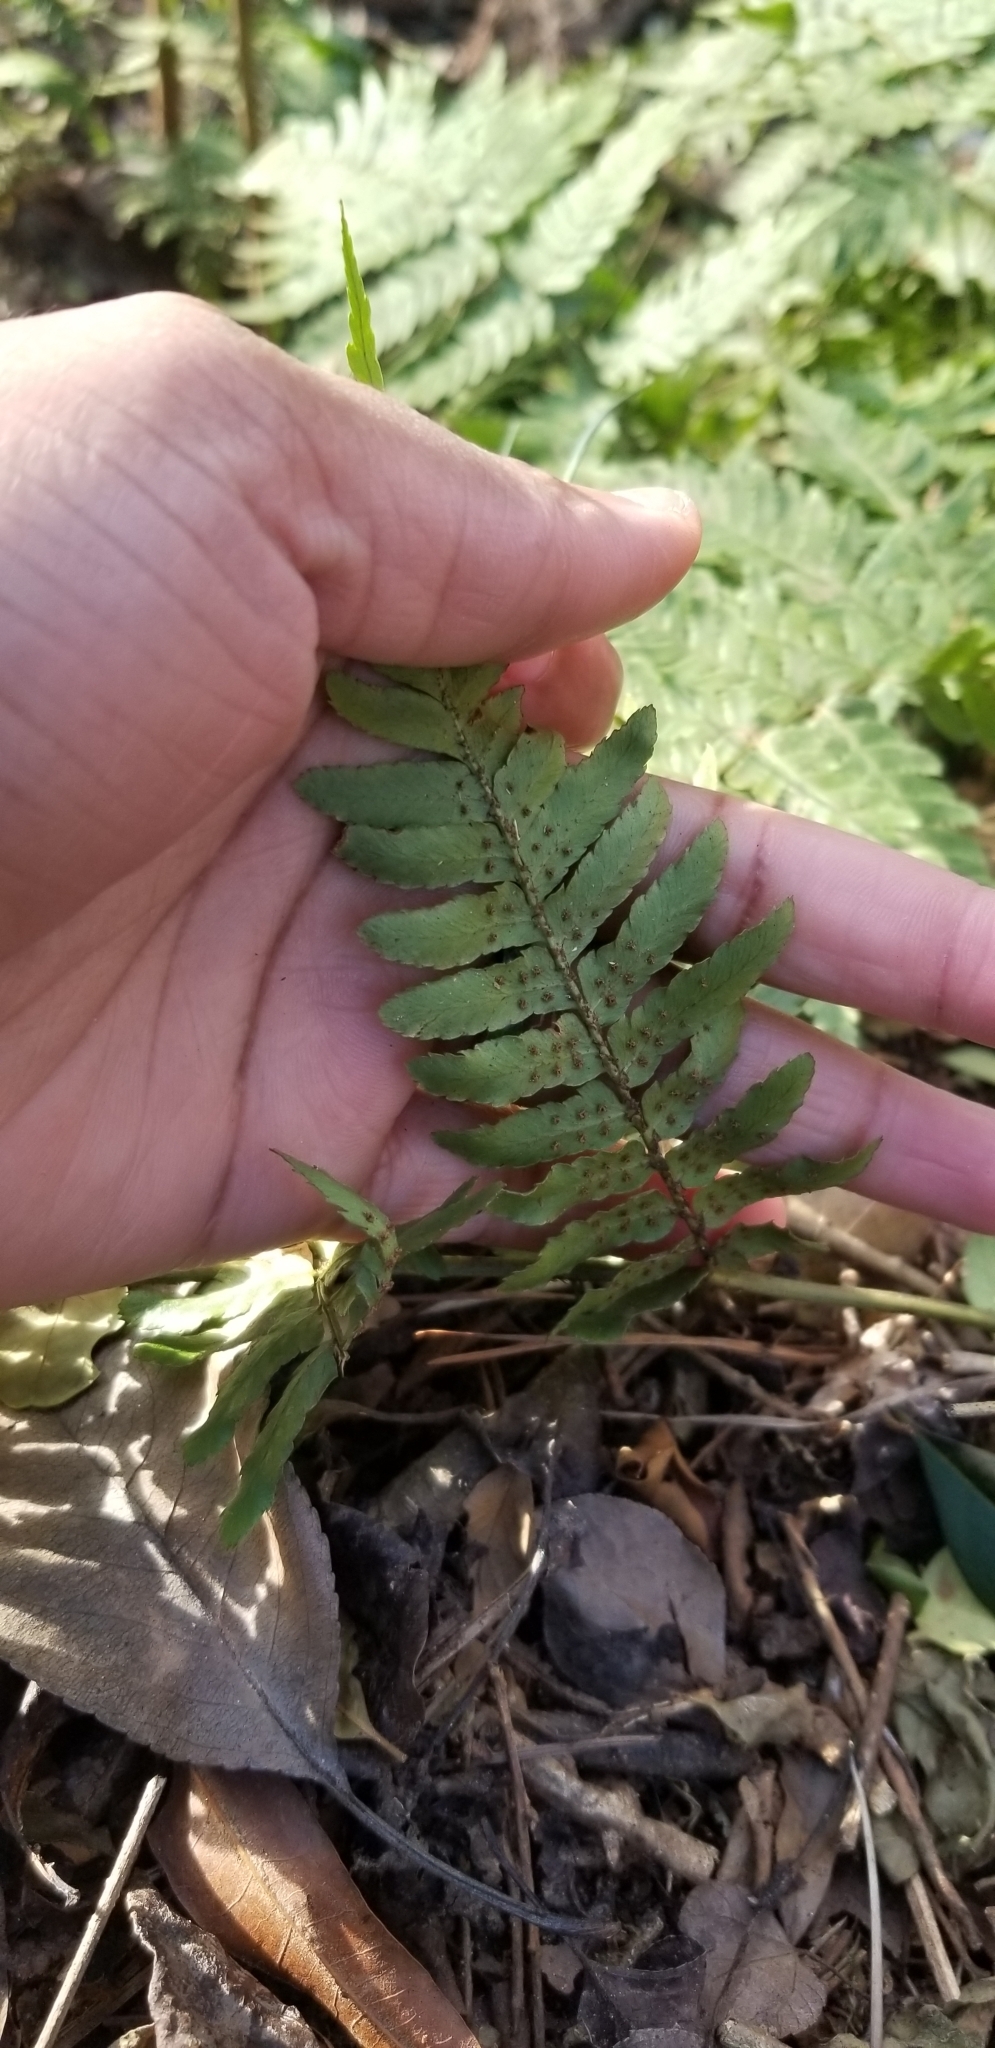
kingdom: Plantae
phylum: Tracheophyta
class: Polypodiopsida
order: Polypodiales
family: Dryopteridaceae
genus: Dryopteris
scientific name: Dryopteris erythrosora
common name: Autumn fern
